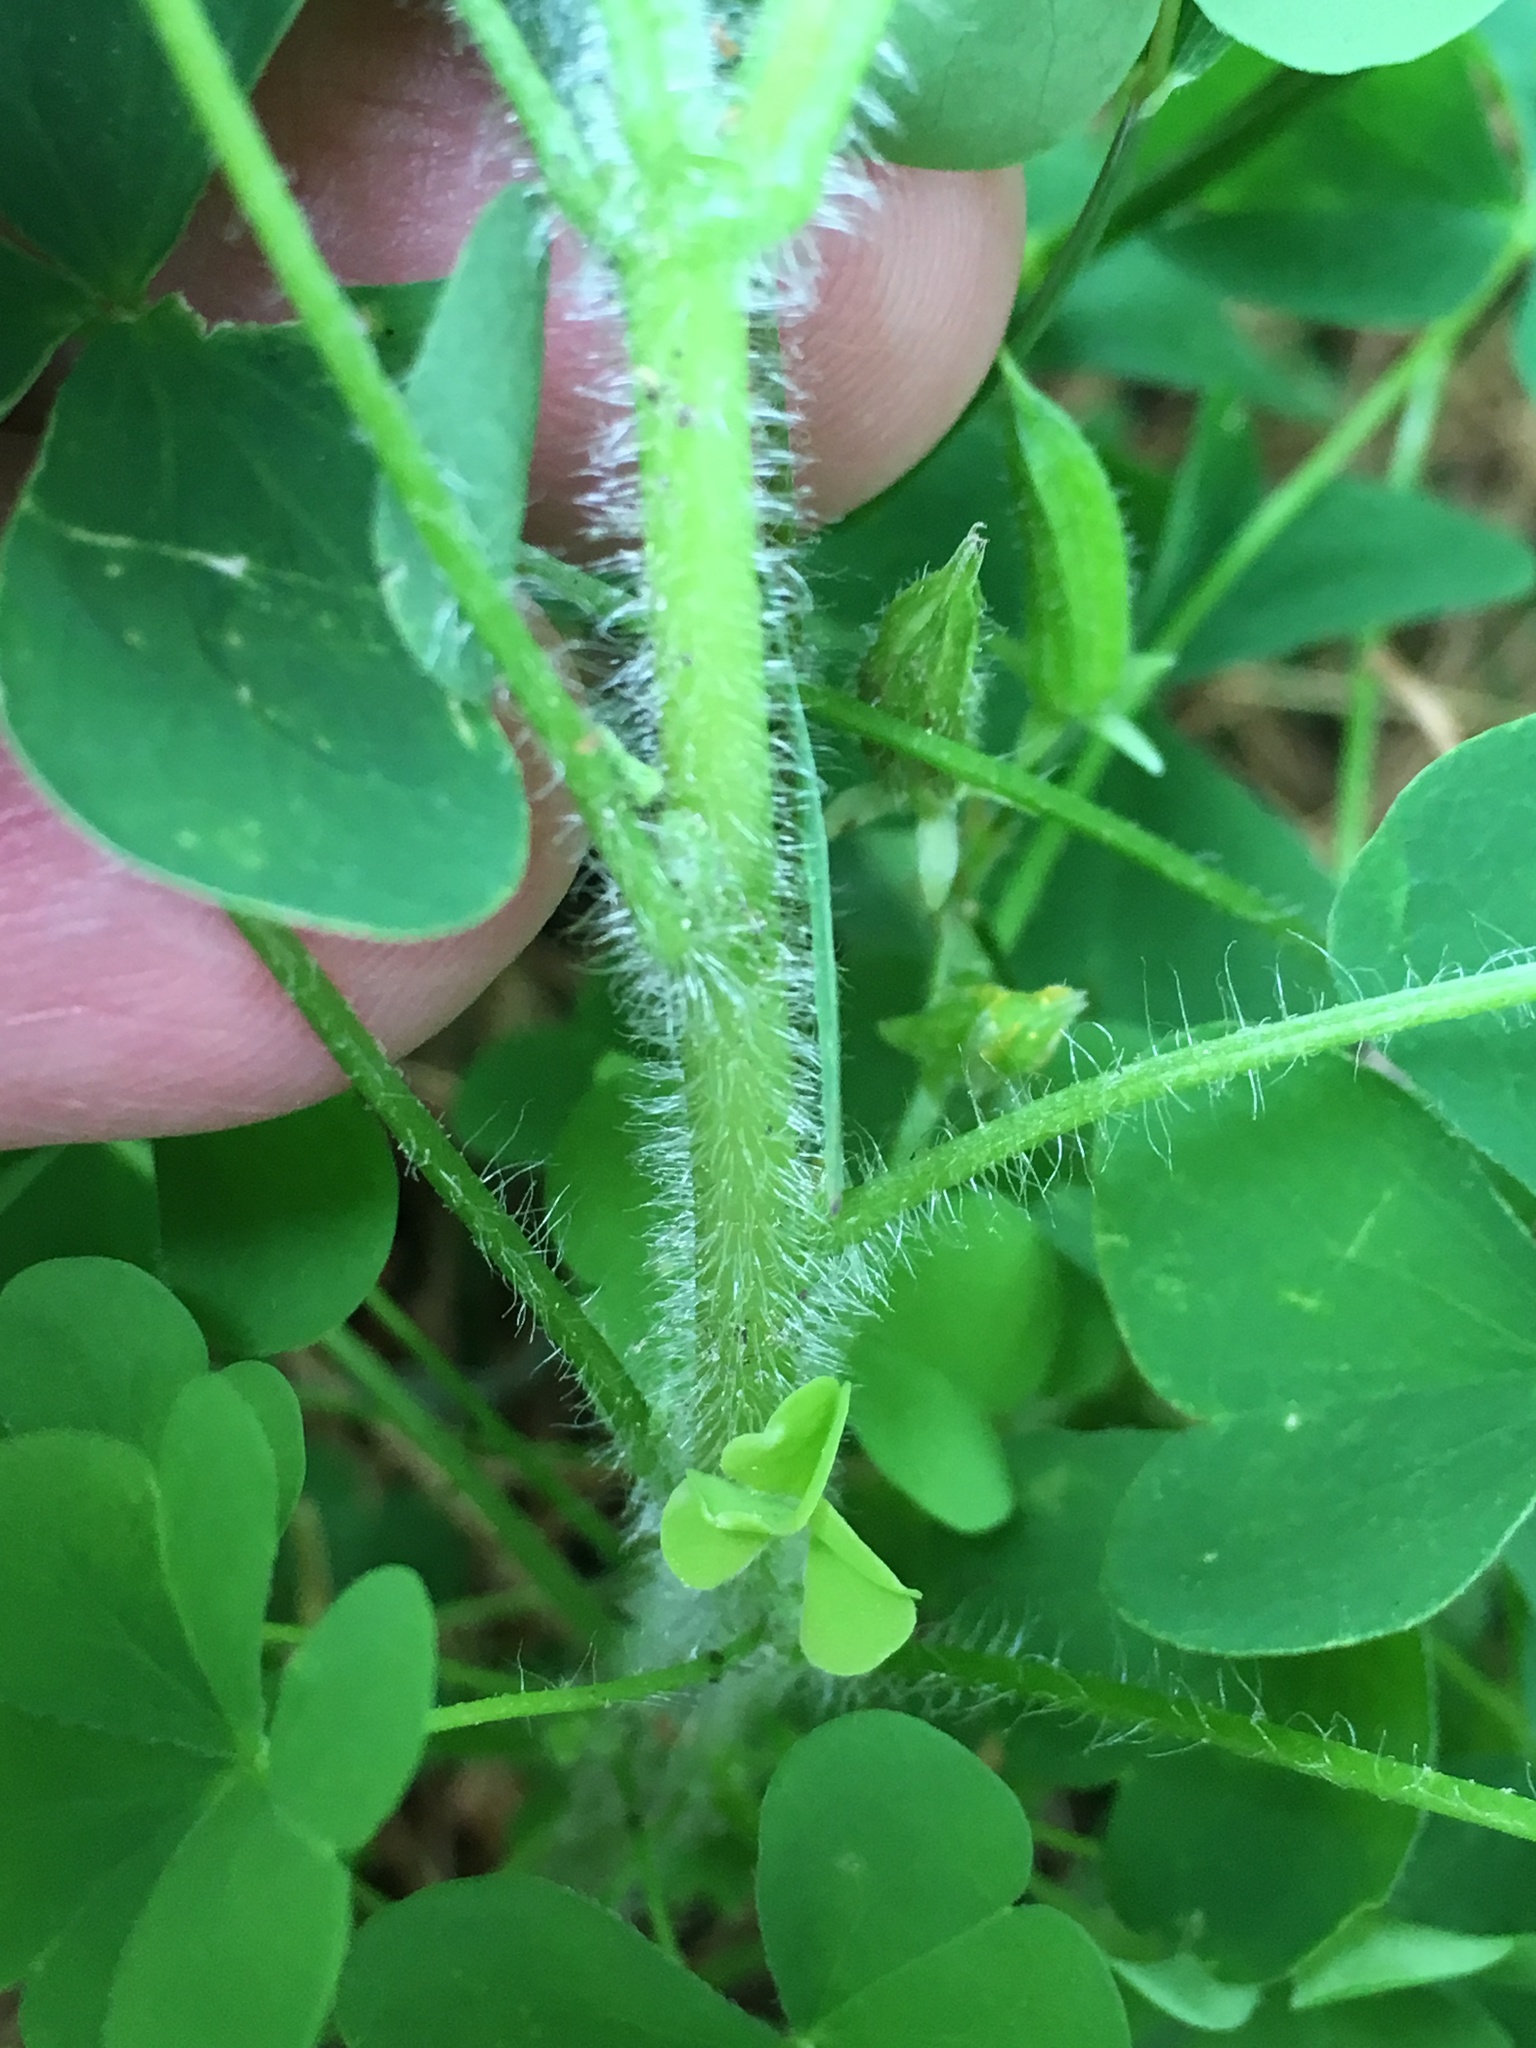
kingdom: Plantae
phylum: Tracheophyta
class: Magnoliopsida
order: Oxalidales
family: Oxalidaceae
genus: Oxalis
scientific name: Oxalis stricta
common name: Upright yellow-sorrel
